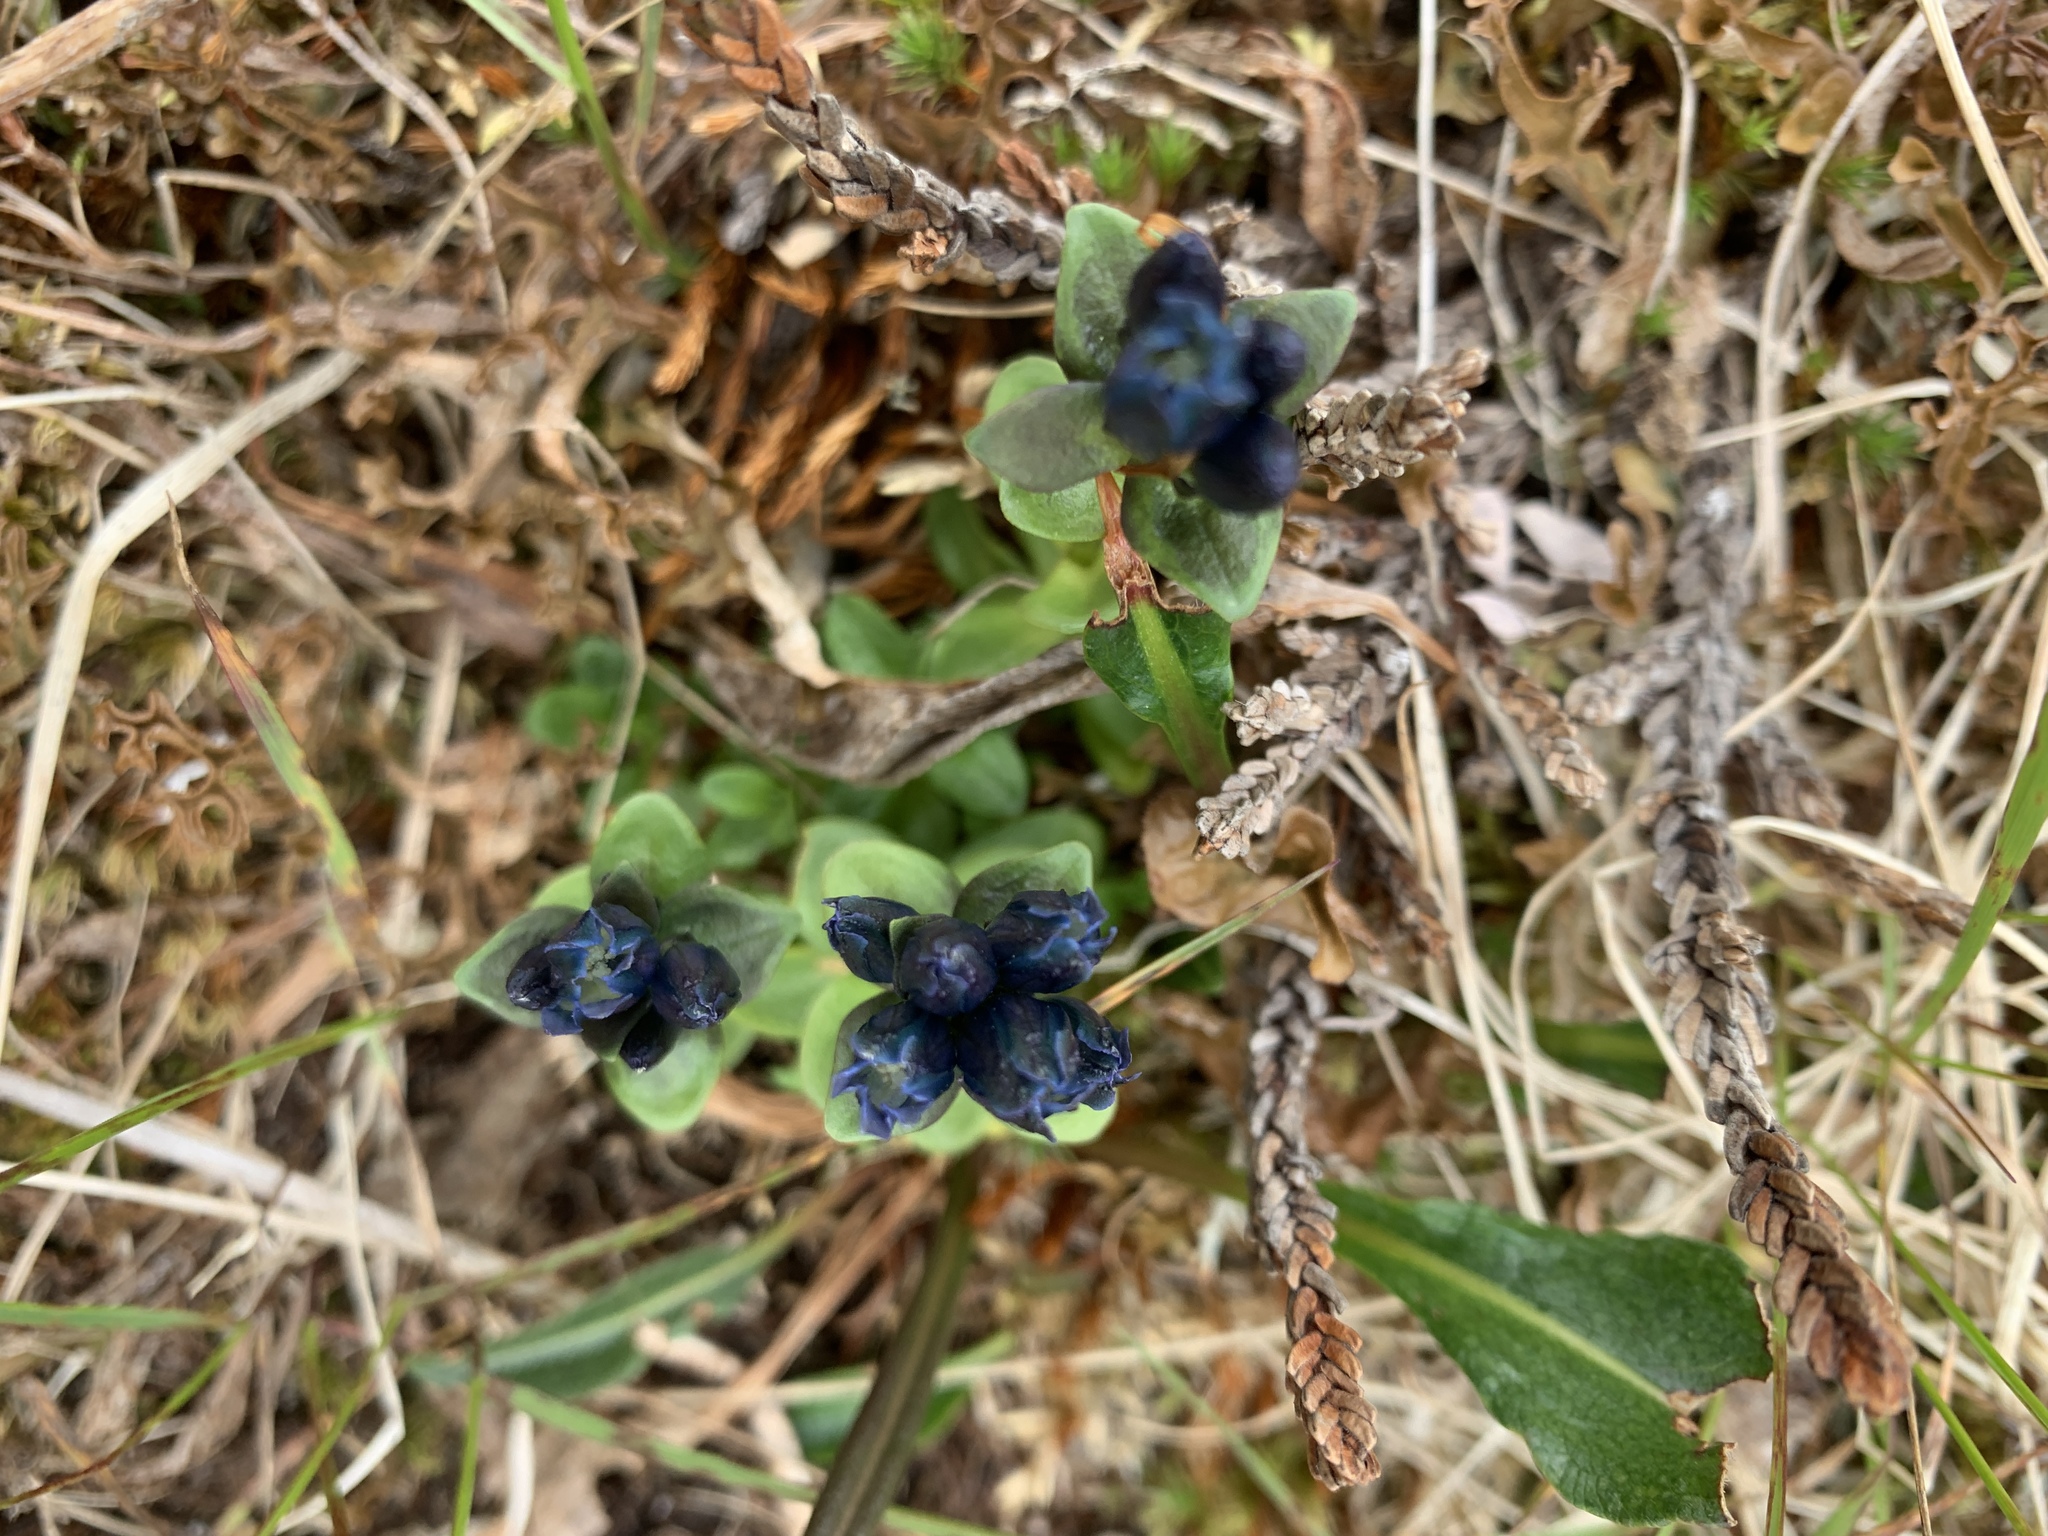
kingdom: Plantae
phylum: Tracheophyta
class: Magnoliopsida
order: Gentianales
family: Gentianaceae
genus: Gentiana
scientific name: Gentiana glauca
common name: Alpine gentian
